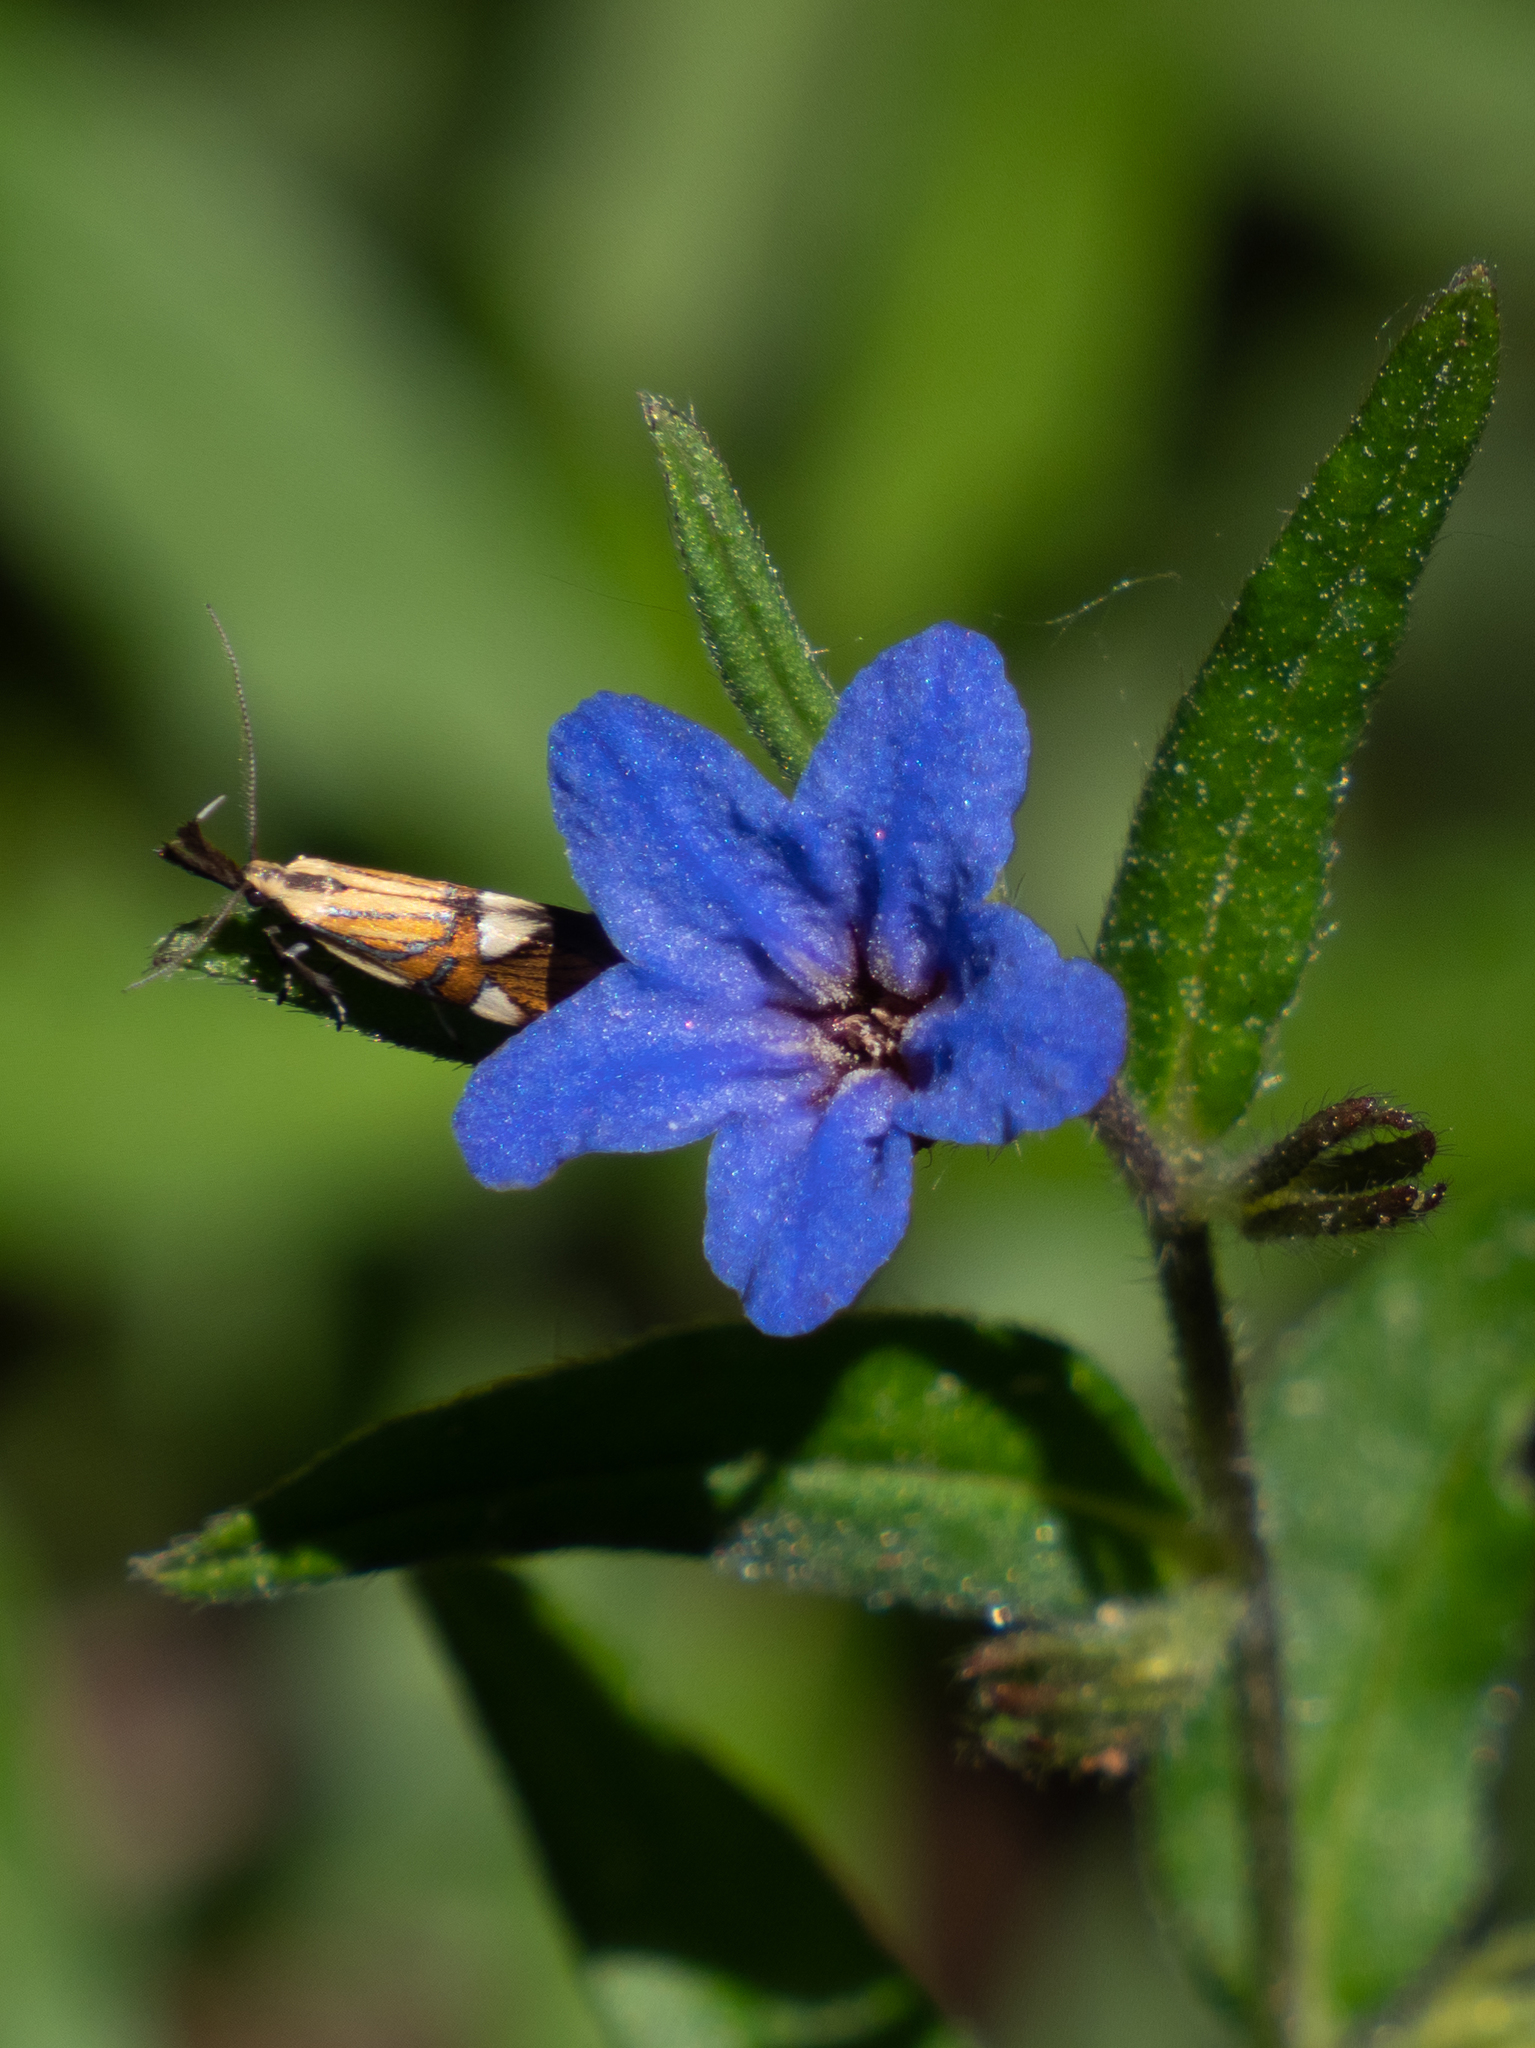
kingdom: Animalia
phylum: Arthropoda
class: Insecta
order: Lepidoptera
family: Oecophoridae
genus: Oecophora
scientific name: Oecophora Alabonia geoffrella
